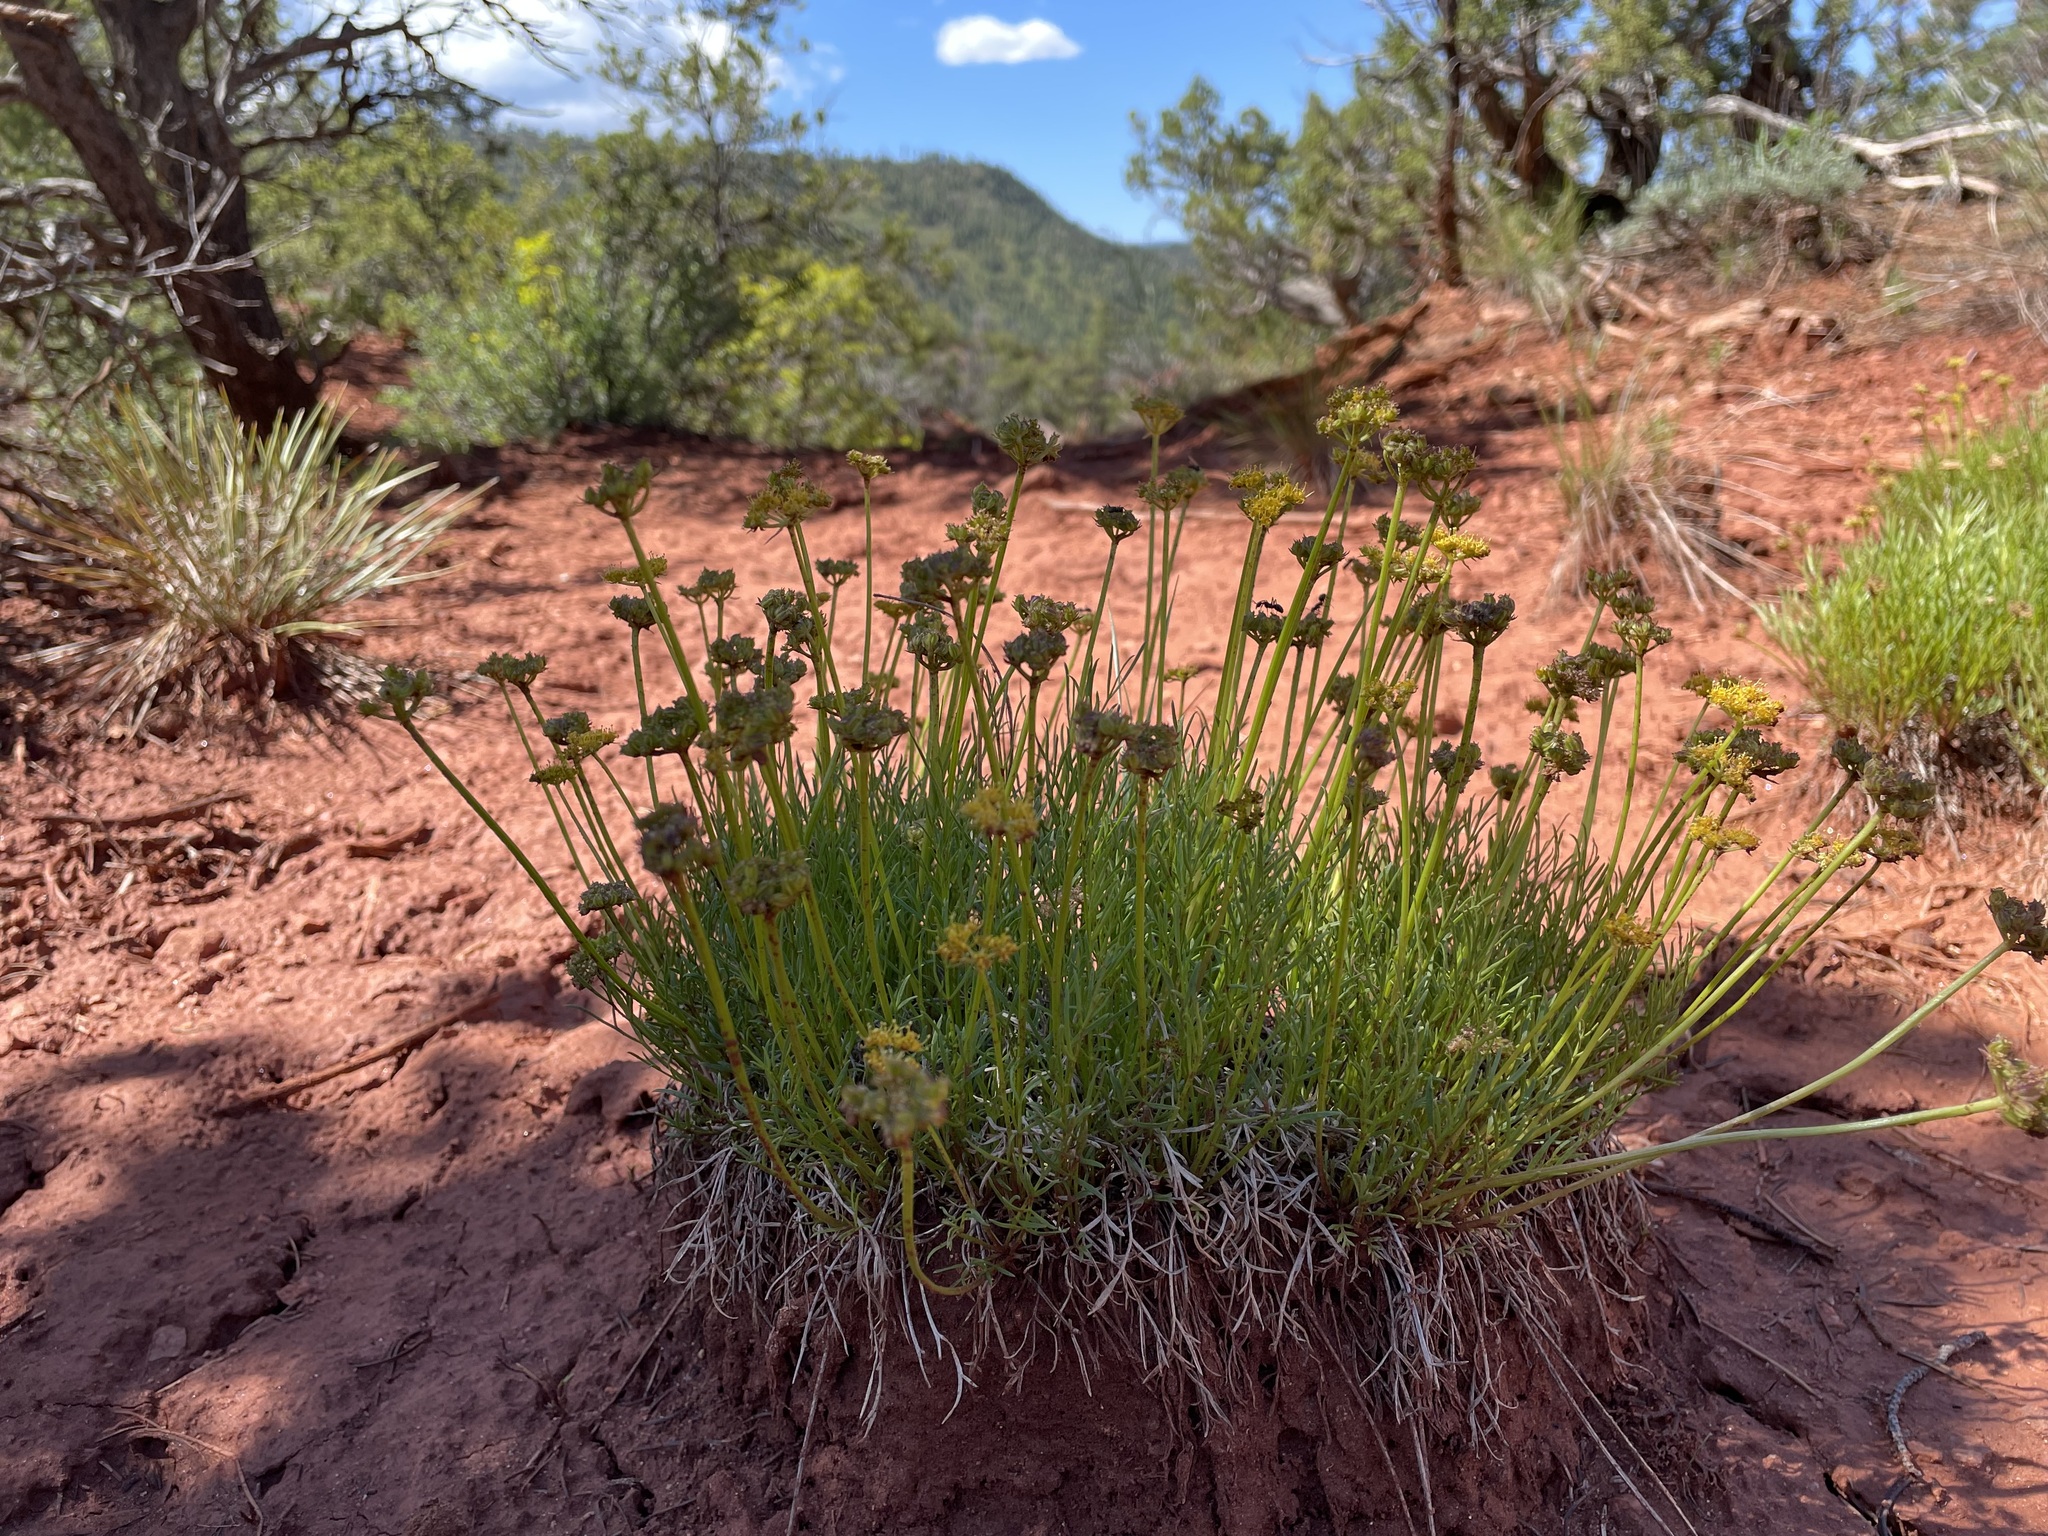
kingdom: Plantae
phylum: Tracheophyta
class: Magnoliopsida
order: Apiales
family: Apiaceae
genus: Cymopterus
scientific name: Cymopterus sessiliflorus
